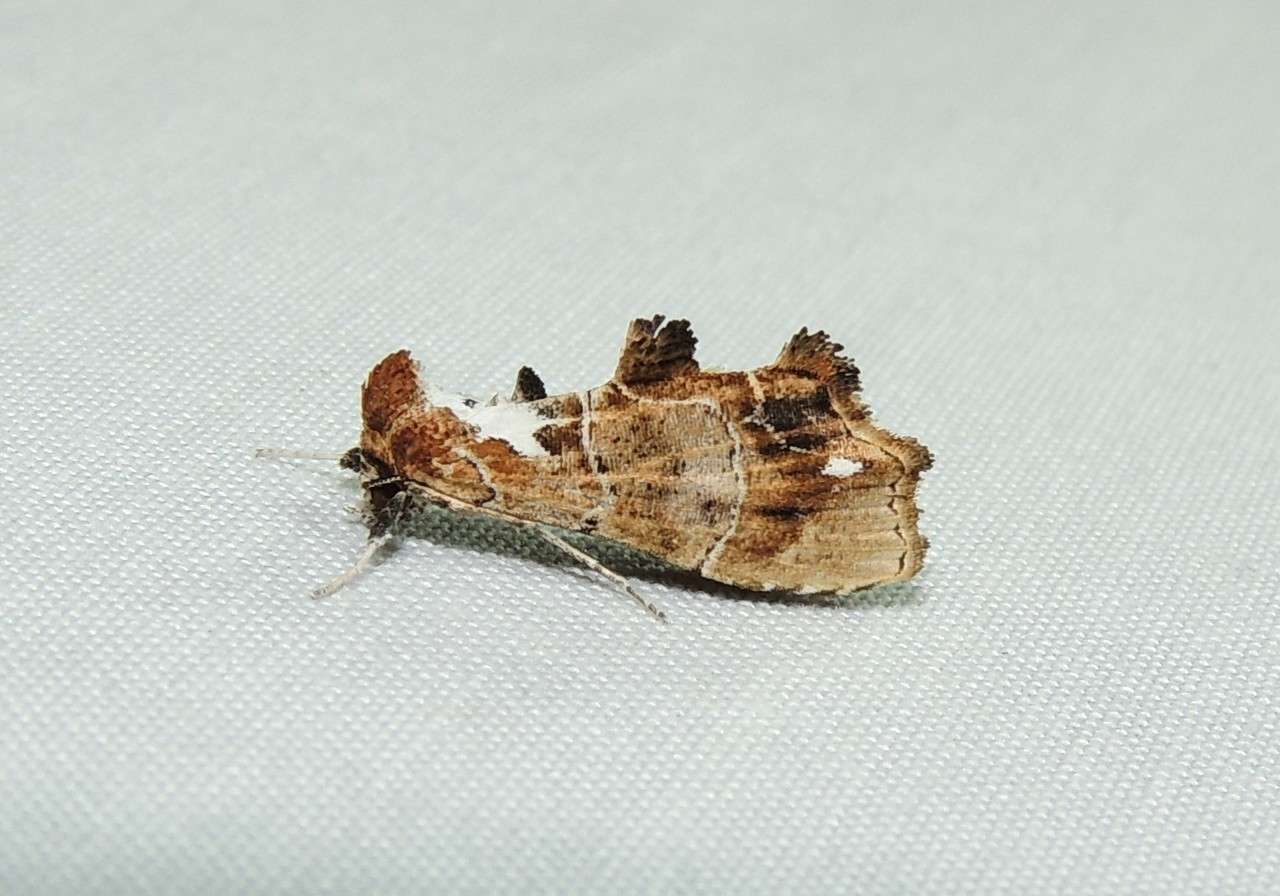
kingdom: Animalia
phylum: Arthropoda
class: Insecta
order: Lepidoptera
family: Erebidae
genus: Arrade
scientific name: Arrade leucocosmalis
